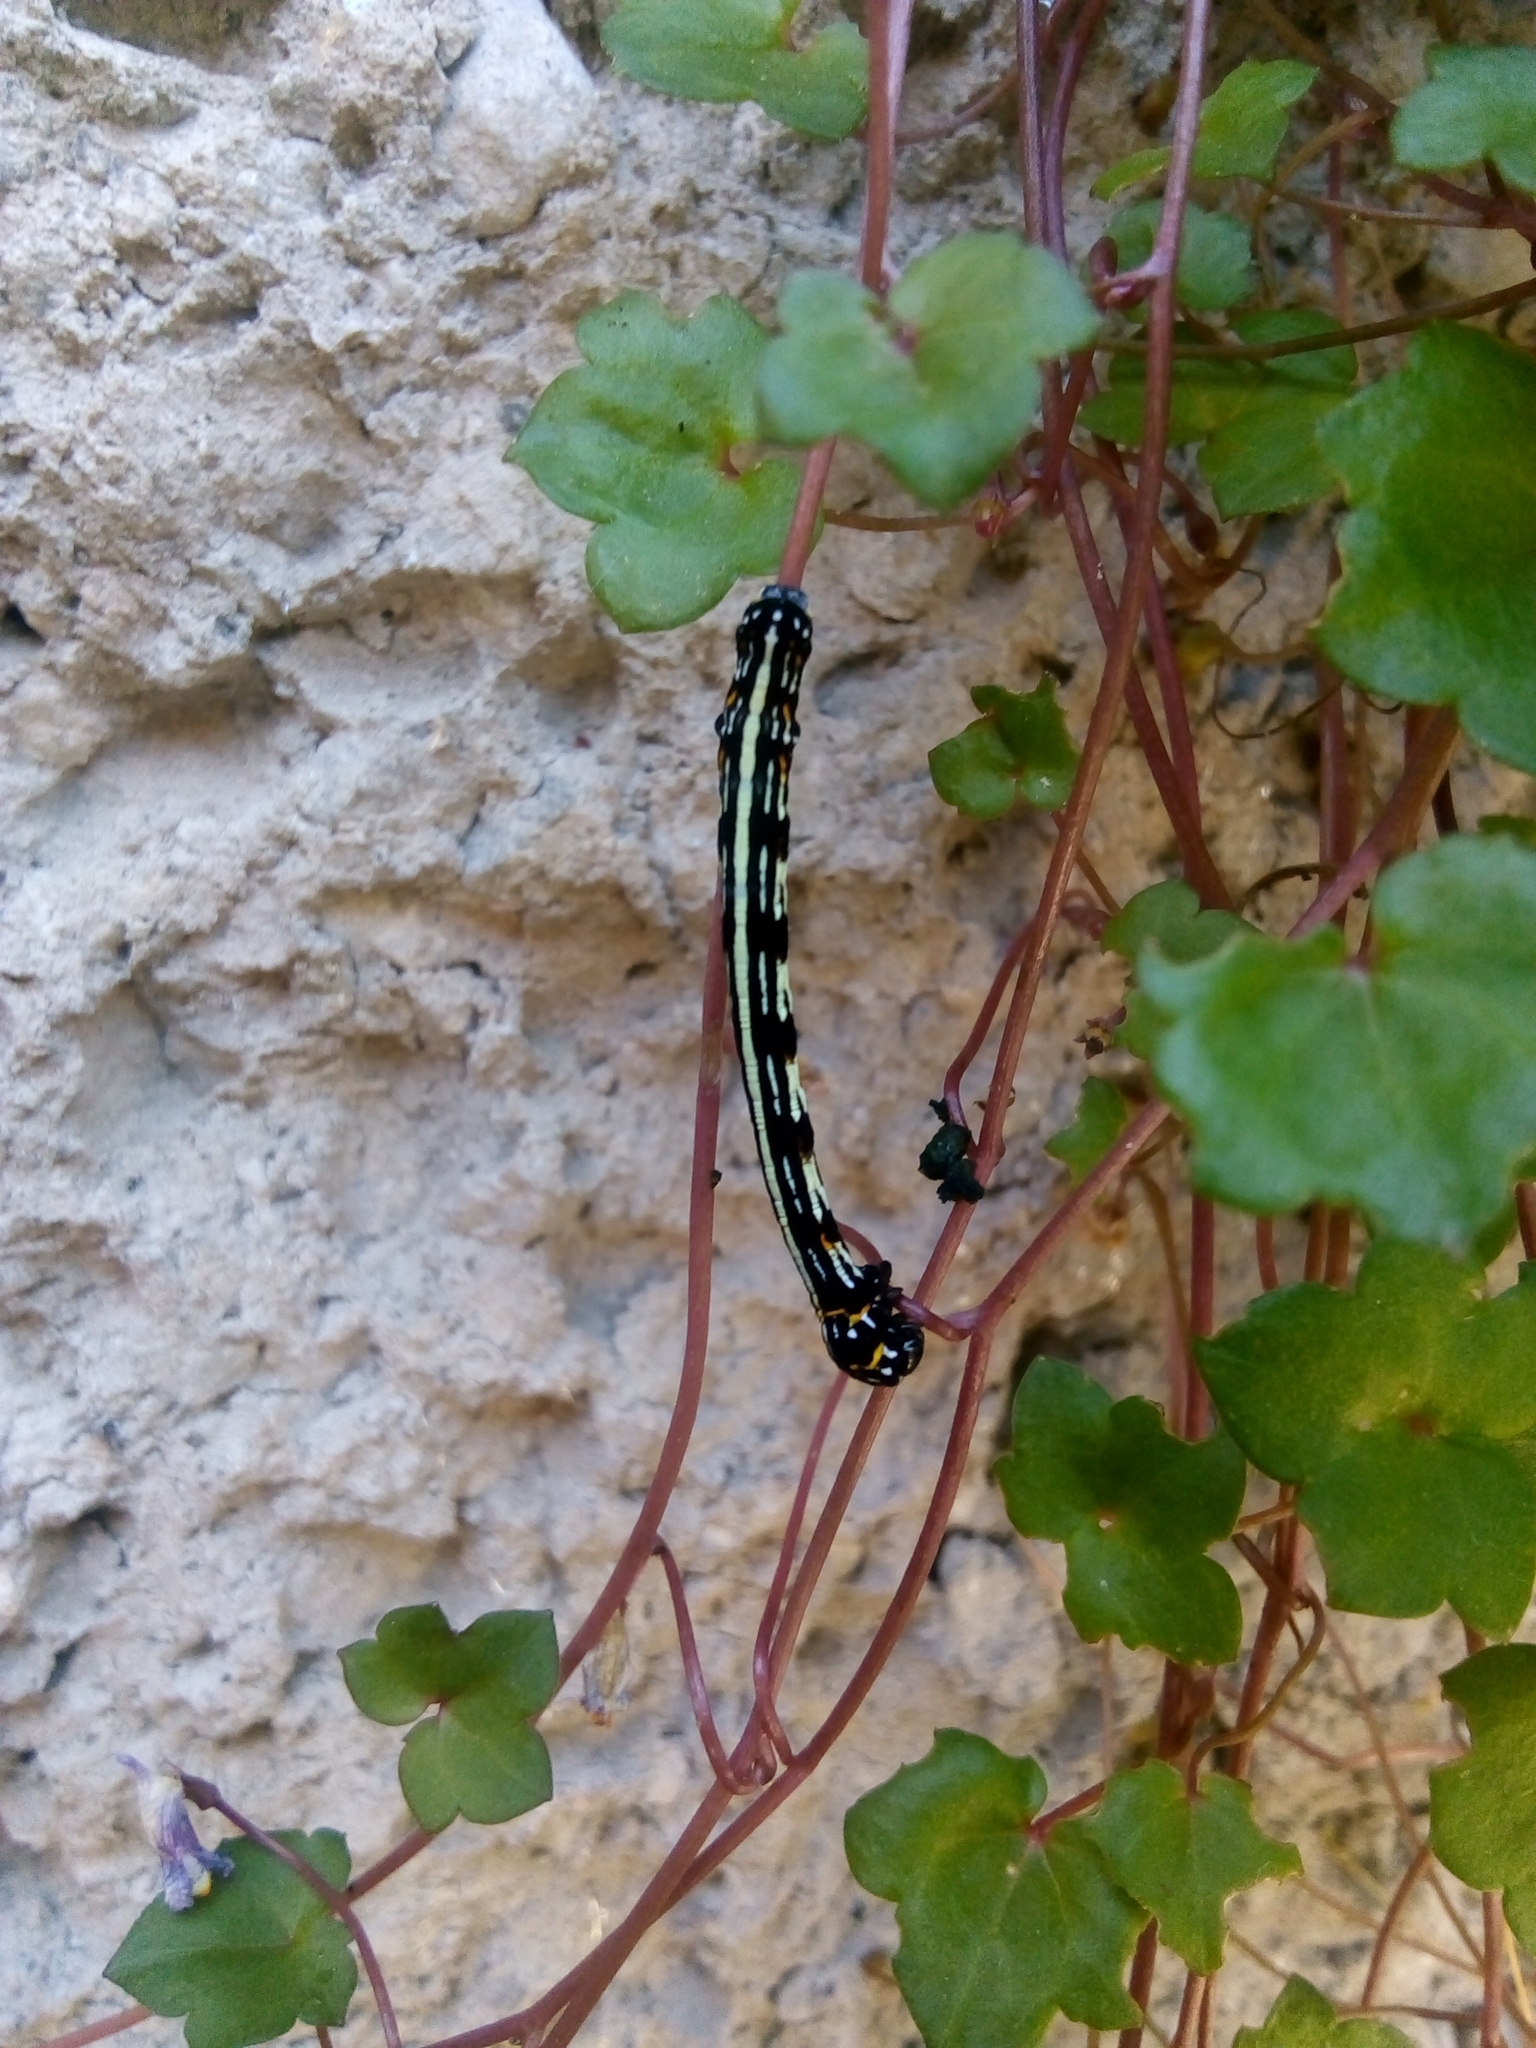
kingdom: Animalia
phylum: Arthropoda
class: Insecta
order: Lepidoptera
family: Geometridae
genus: Acronyctodes
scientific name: Acronyctodes mexicanaria
